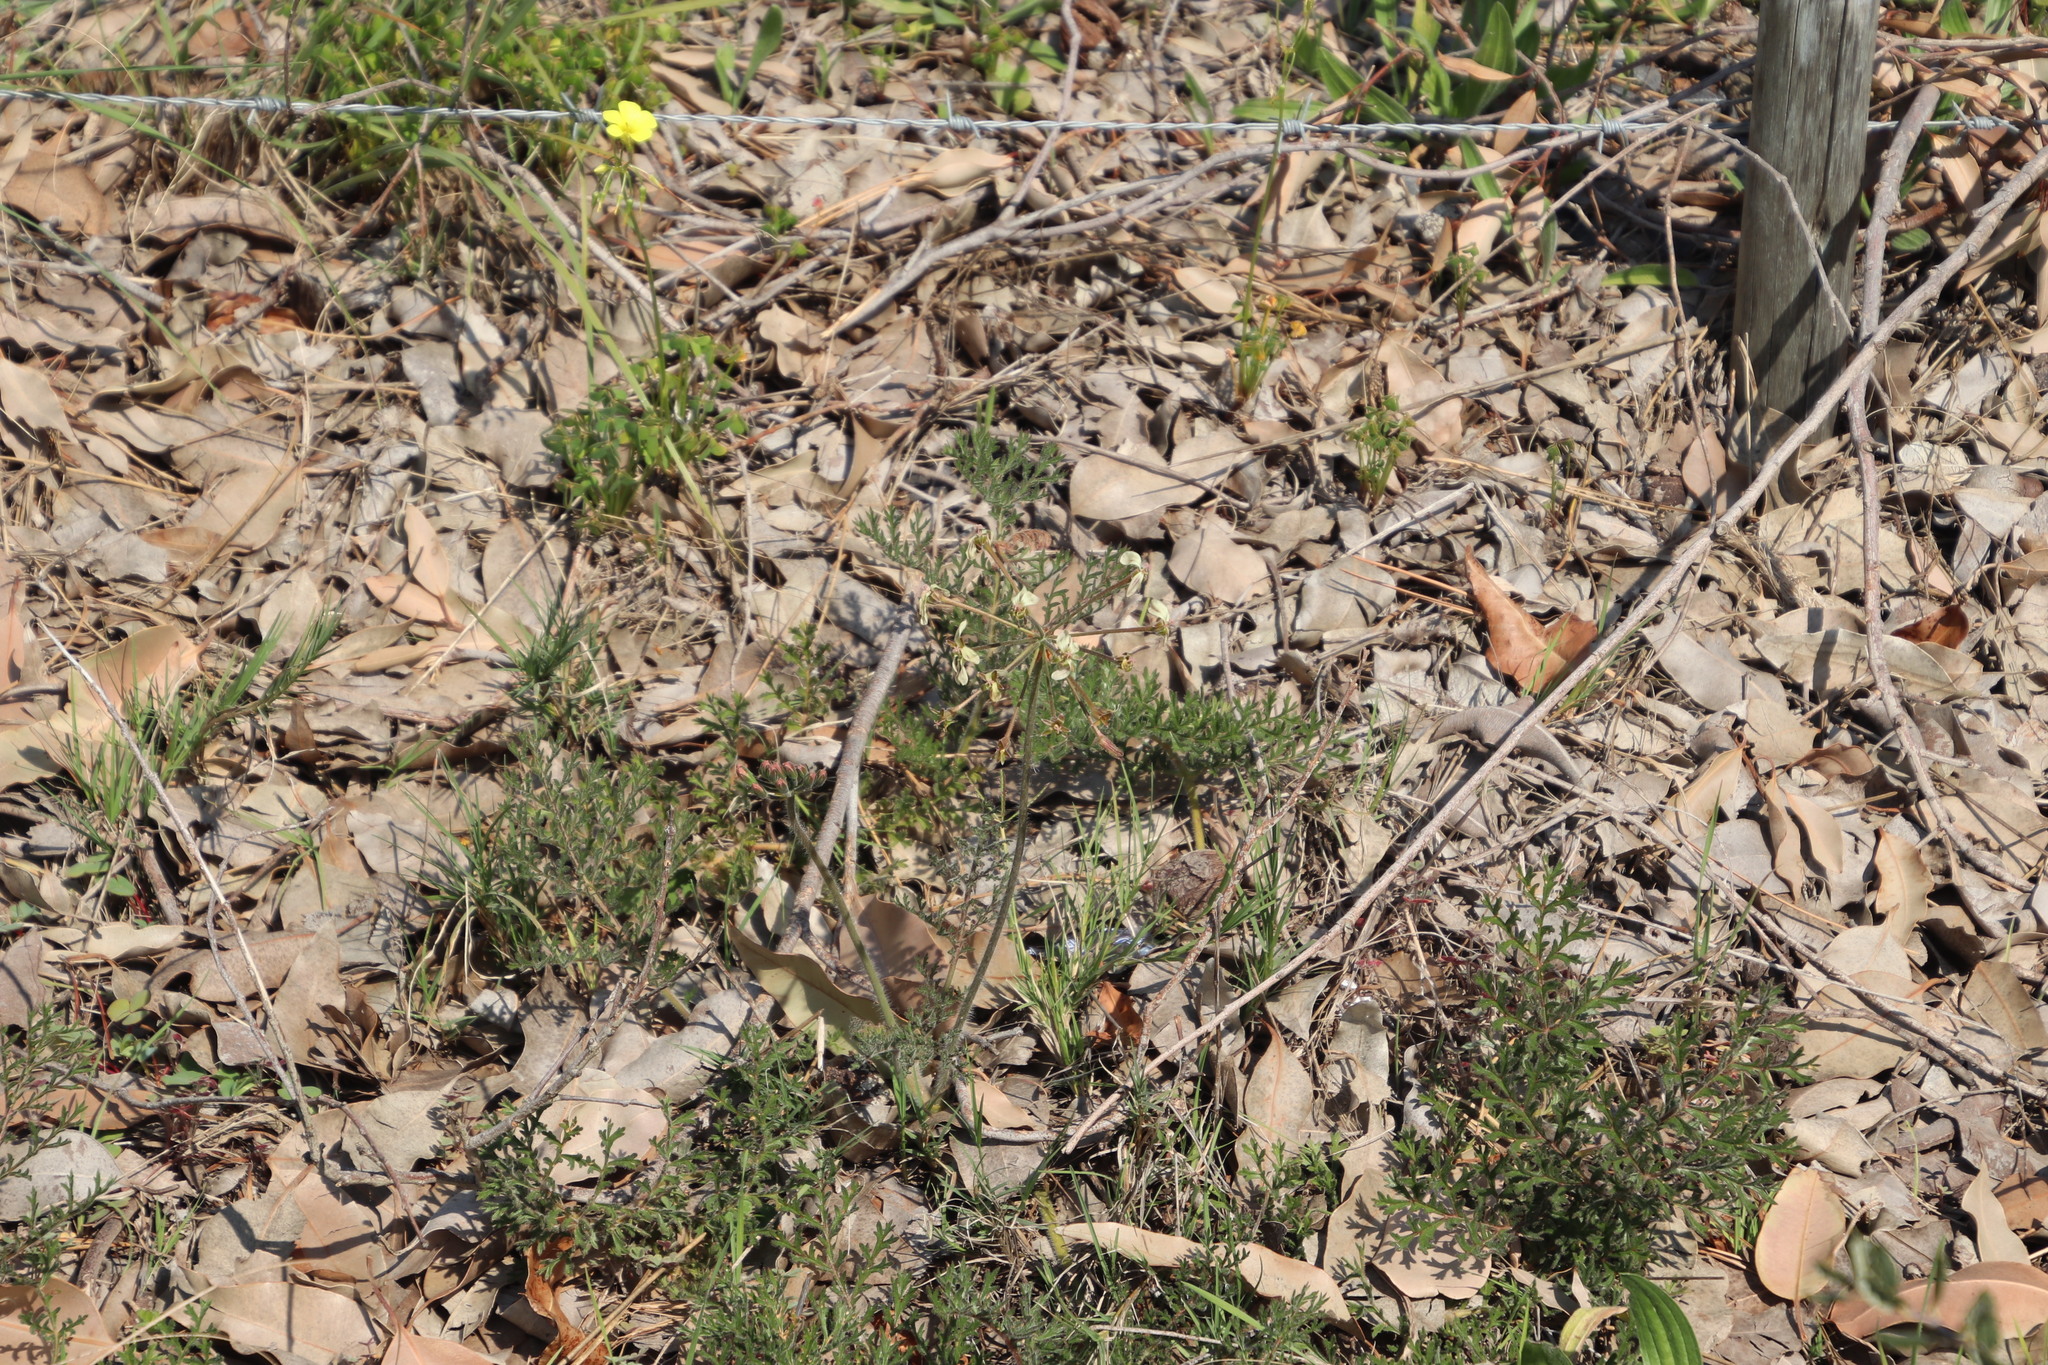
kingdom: Plantae
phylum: Tracheophyta
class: Magnoliopsida
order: Geraniales
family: Geraniaceae
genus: Pelargonium
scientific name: Pelargonium triste
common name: Night-scent pelargonium
